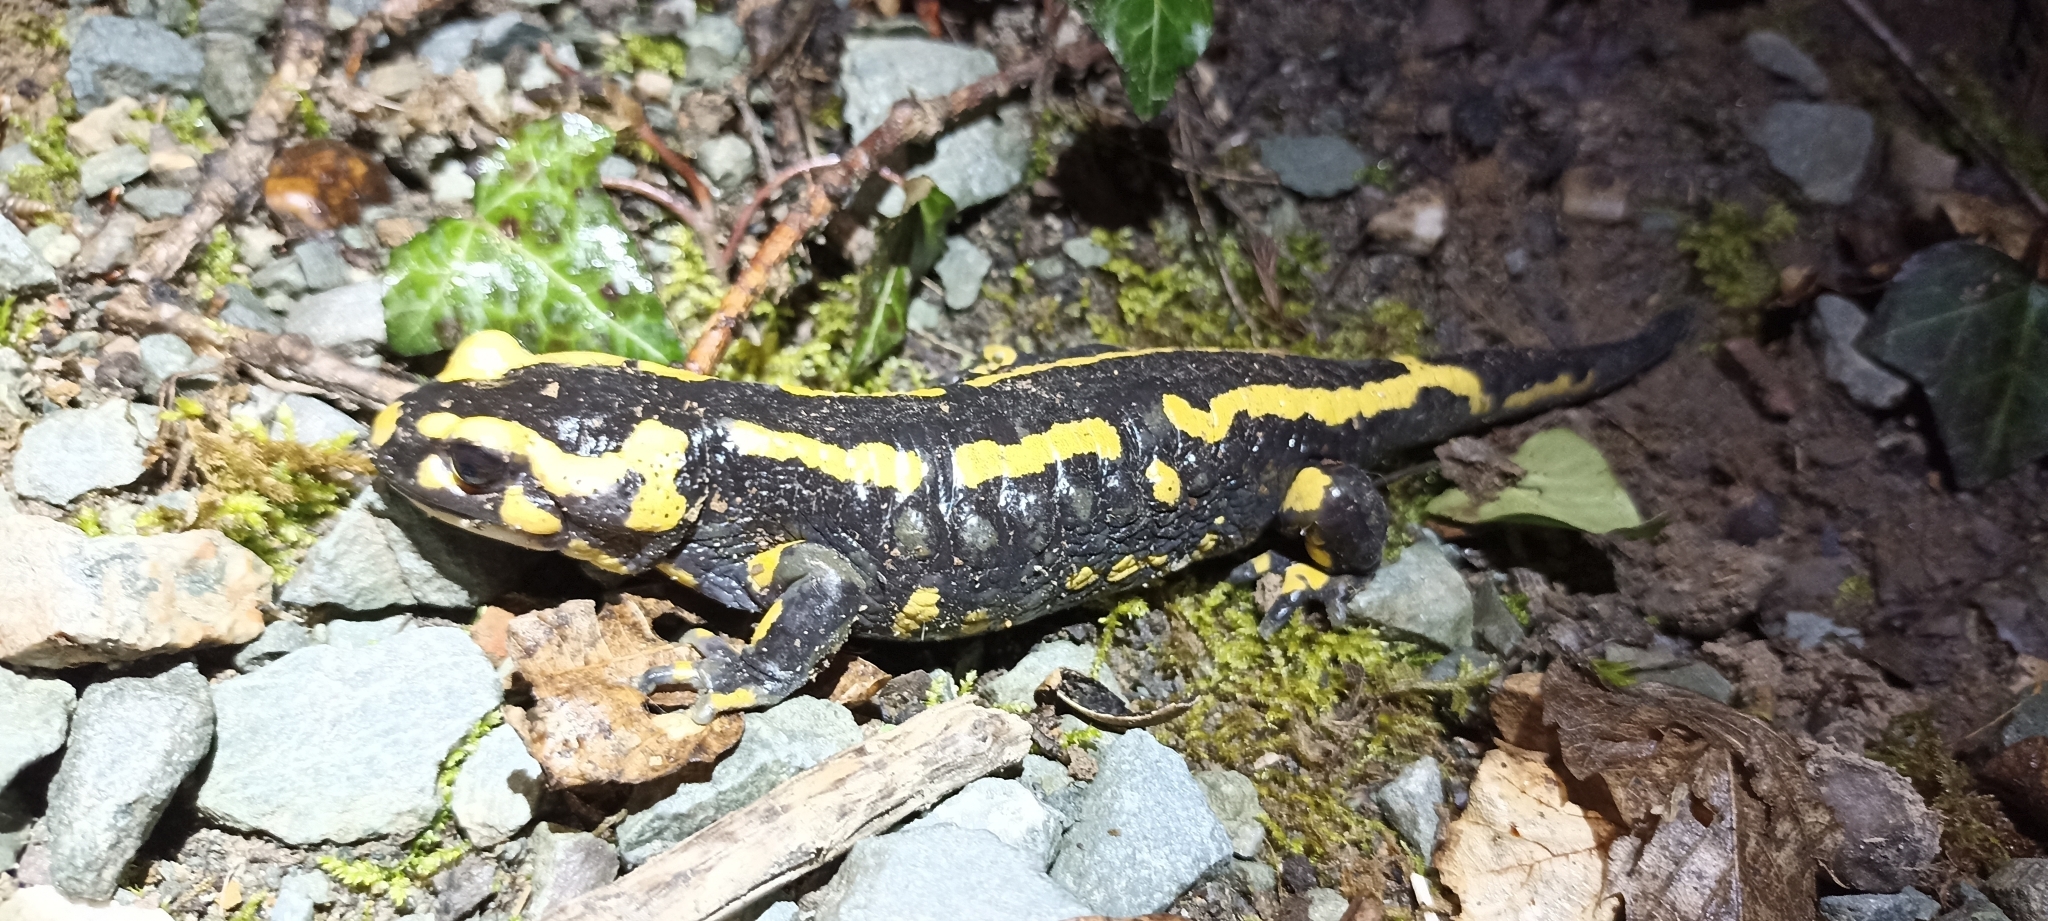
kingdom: Animalia
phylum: Chordata
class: Amphibia
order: Caudata
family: Salamandridae
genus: Salamandra
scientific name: Salamandra salamandra
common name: Fire salamander
